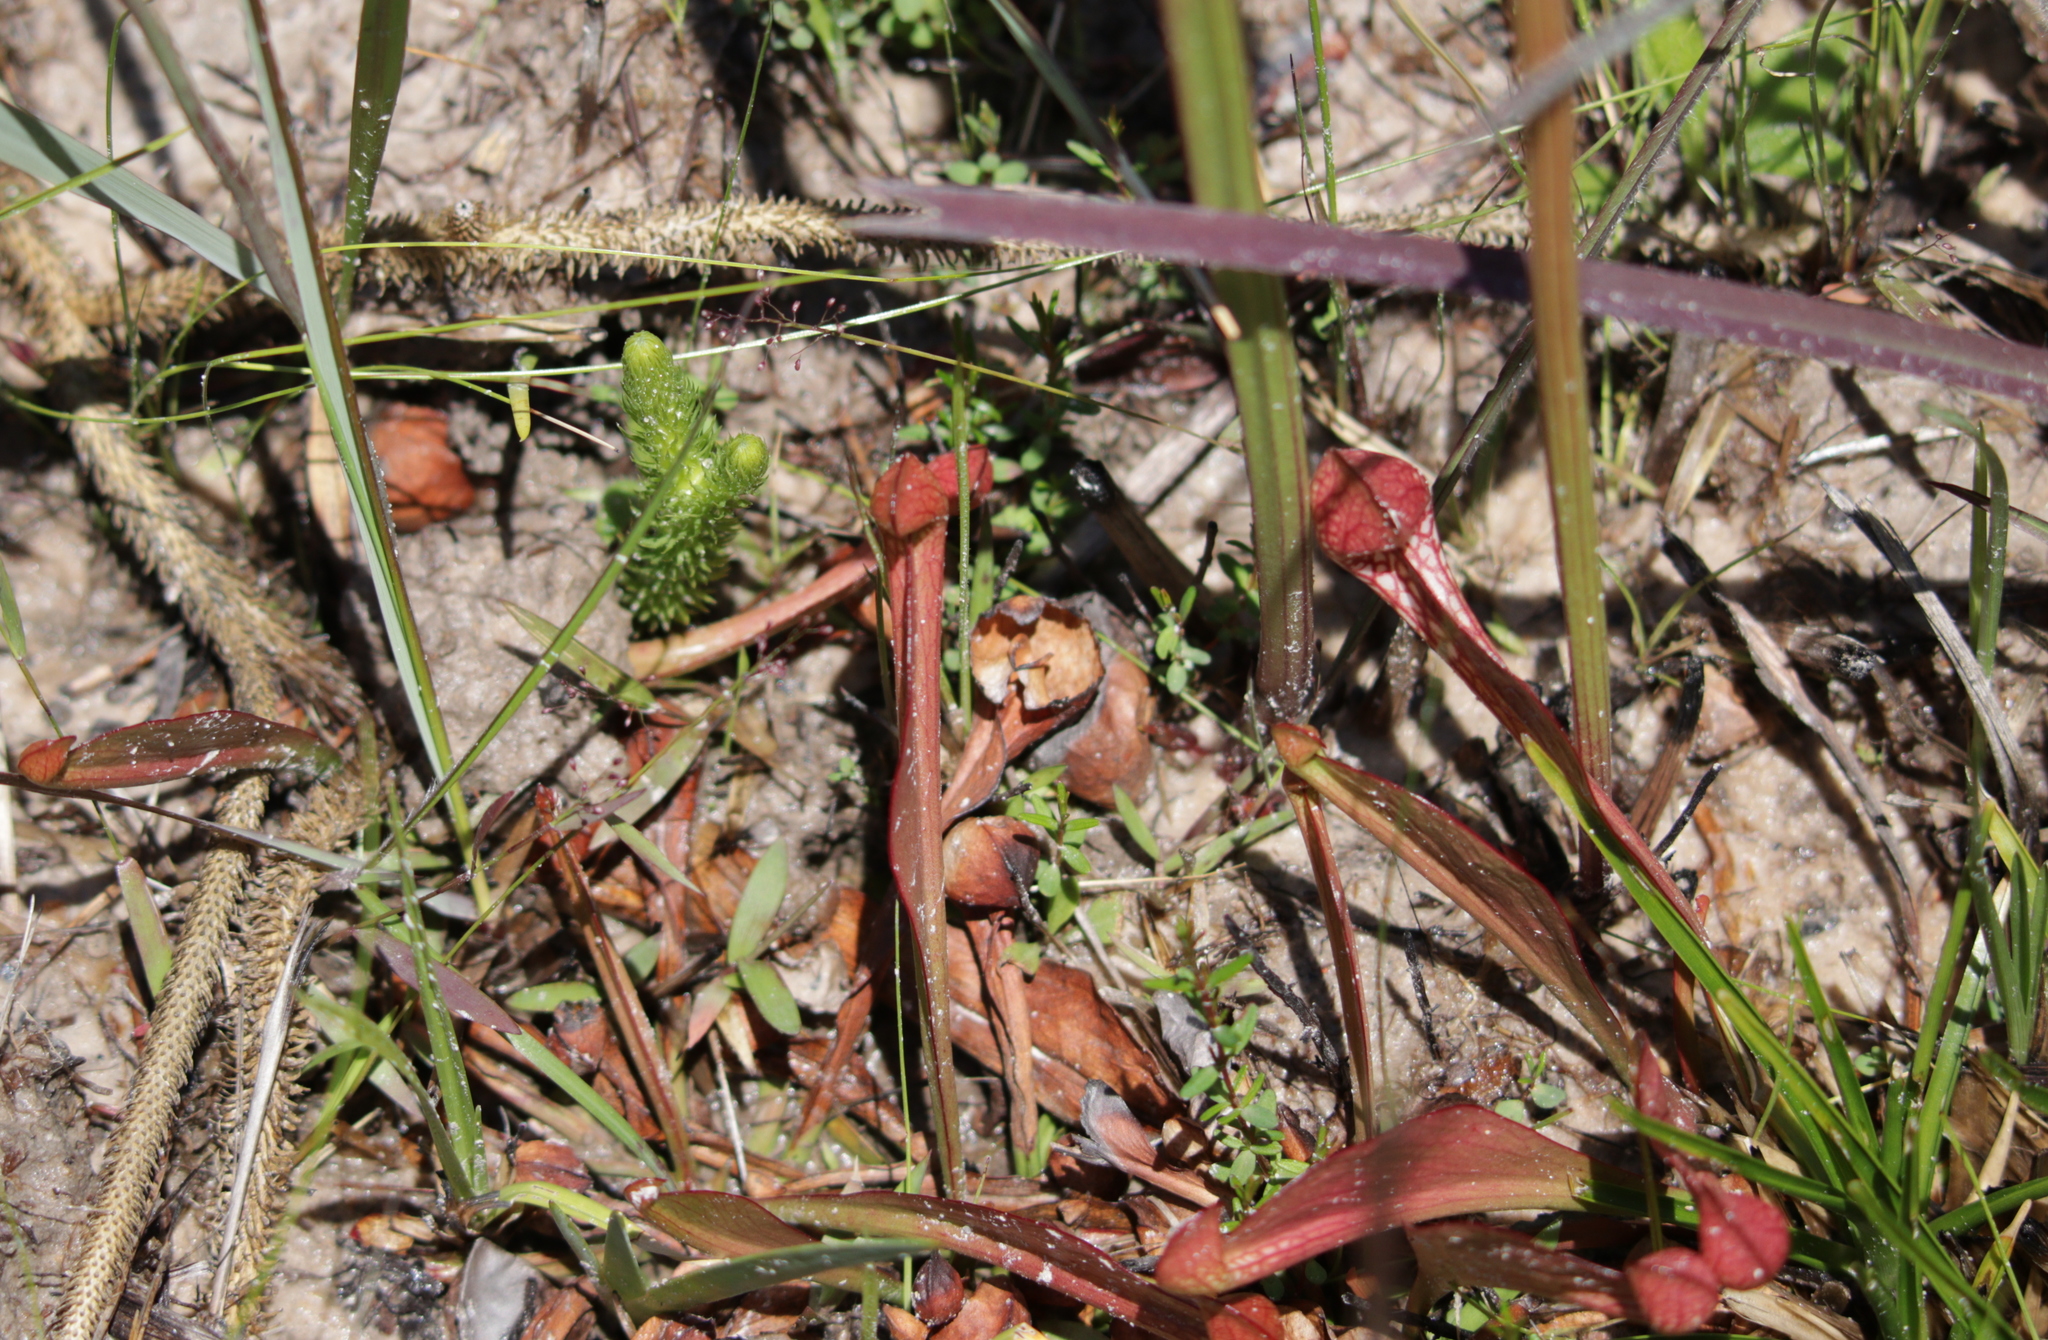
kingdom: Plantae
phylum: Tracheophyta
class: Magnoliopsida
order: Ericales
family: Sarraceniaceae
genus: Sarracenia
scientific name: Sarracenia psittacina
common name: Parrot pitcherplant
